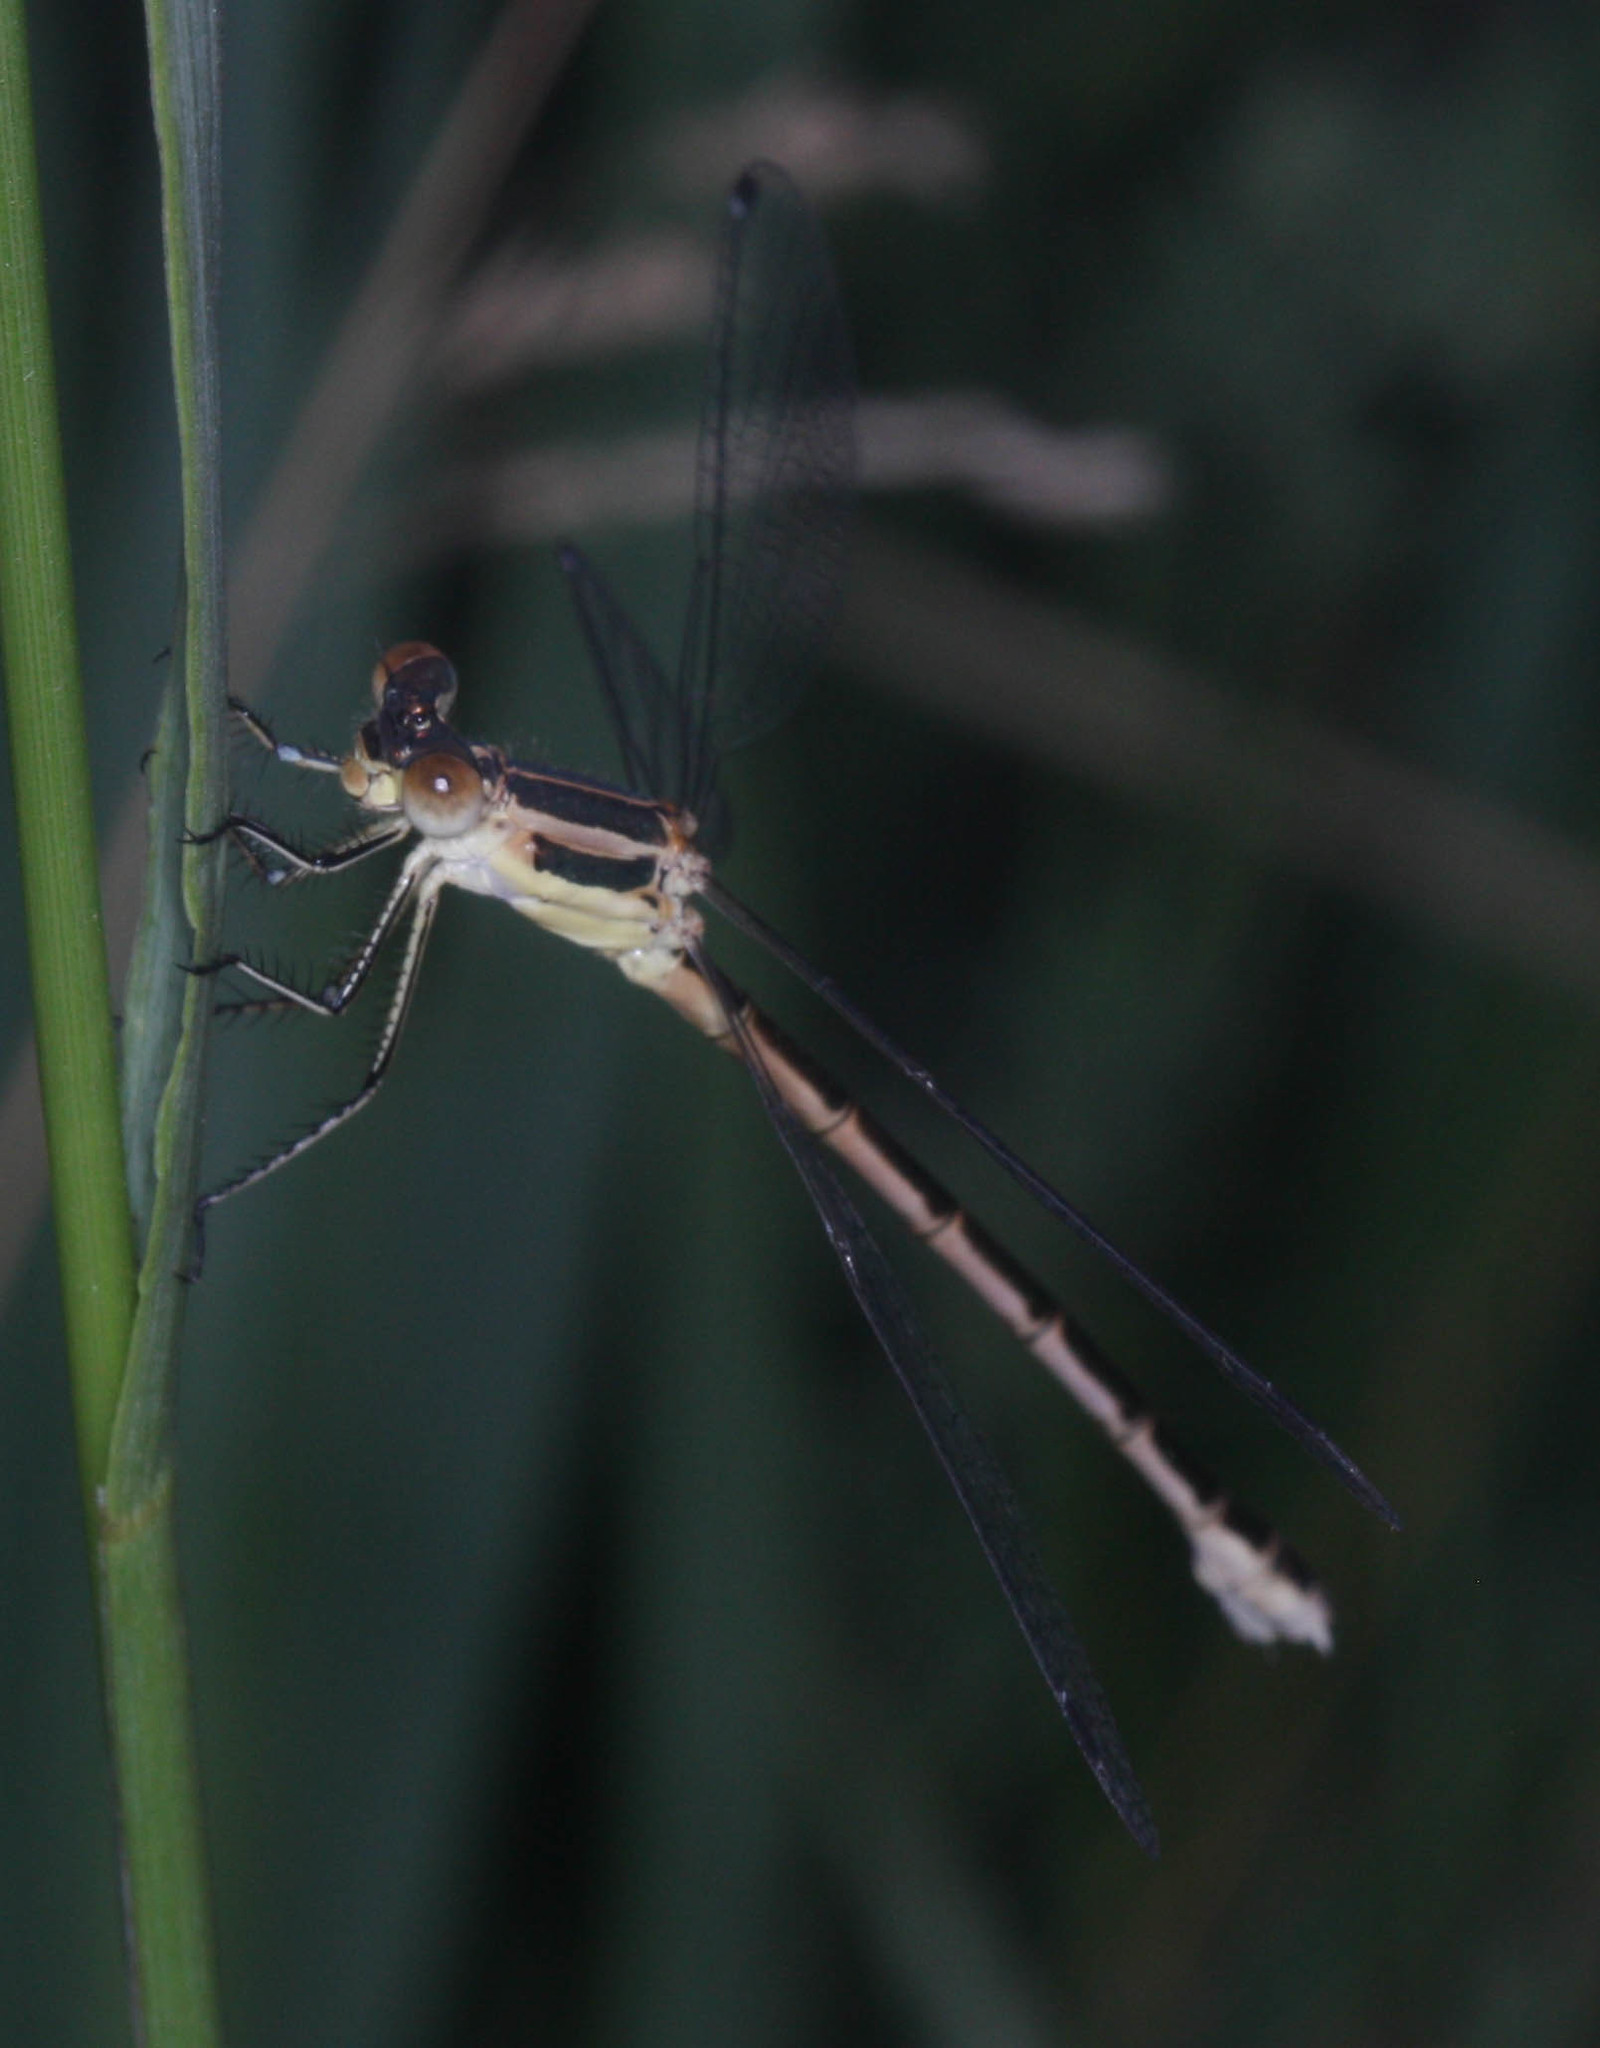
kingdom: Animalia
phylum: Arthropoda
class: Insecta
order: Odonata
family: Lestidae
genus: Lestes
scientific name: Lestes unguiculatus
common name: Lyre-tipped spreadwing
